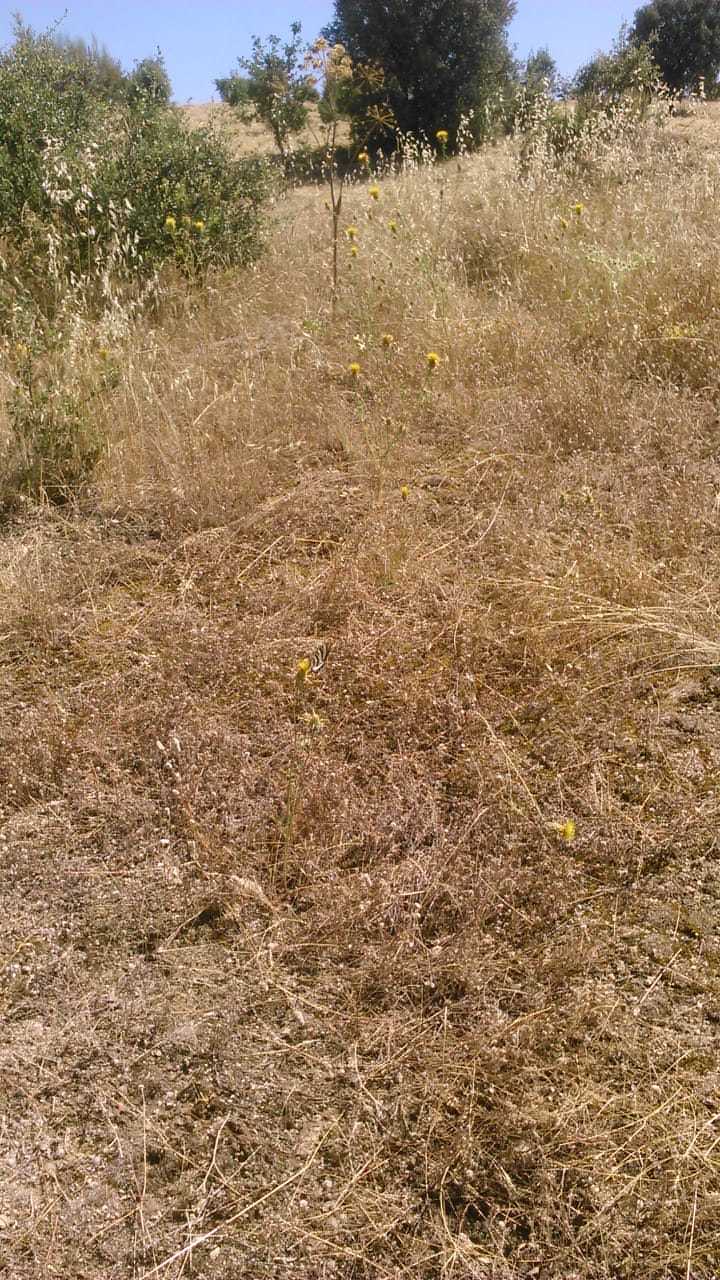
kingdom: Animalia
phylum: Arthropoda
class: Insecta
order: Lepidoptera
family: Papilionidae
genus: Iphiclides
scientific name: Iphiclides feisthamelii
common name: Iberian scarce swallowtail
